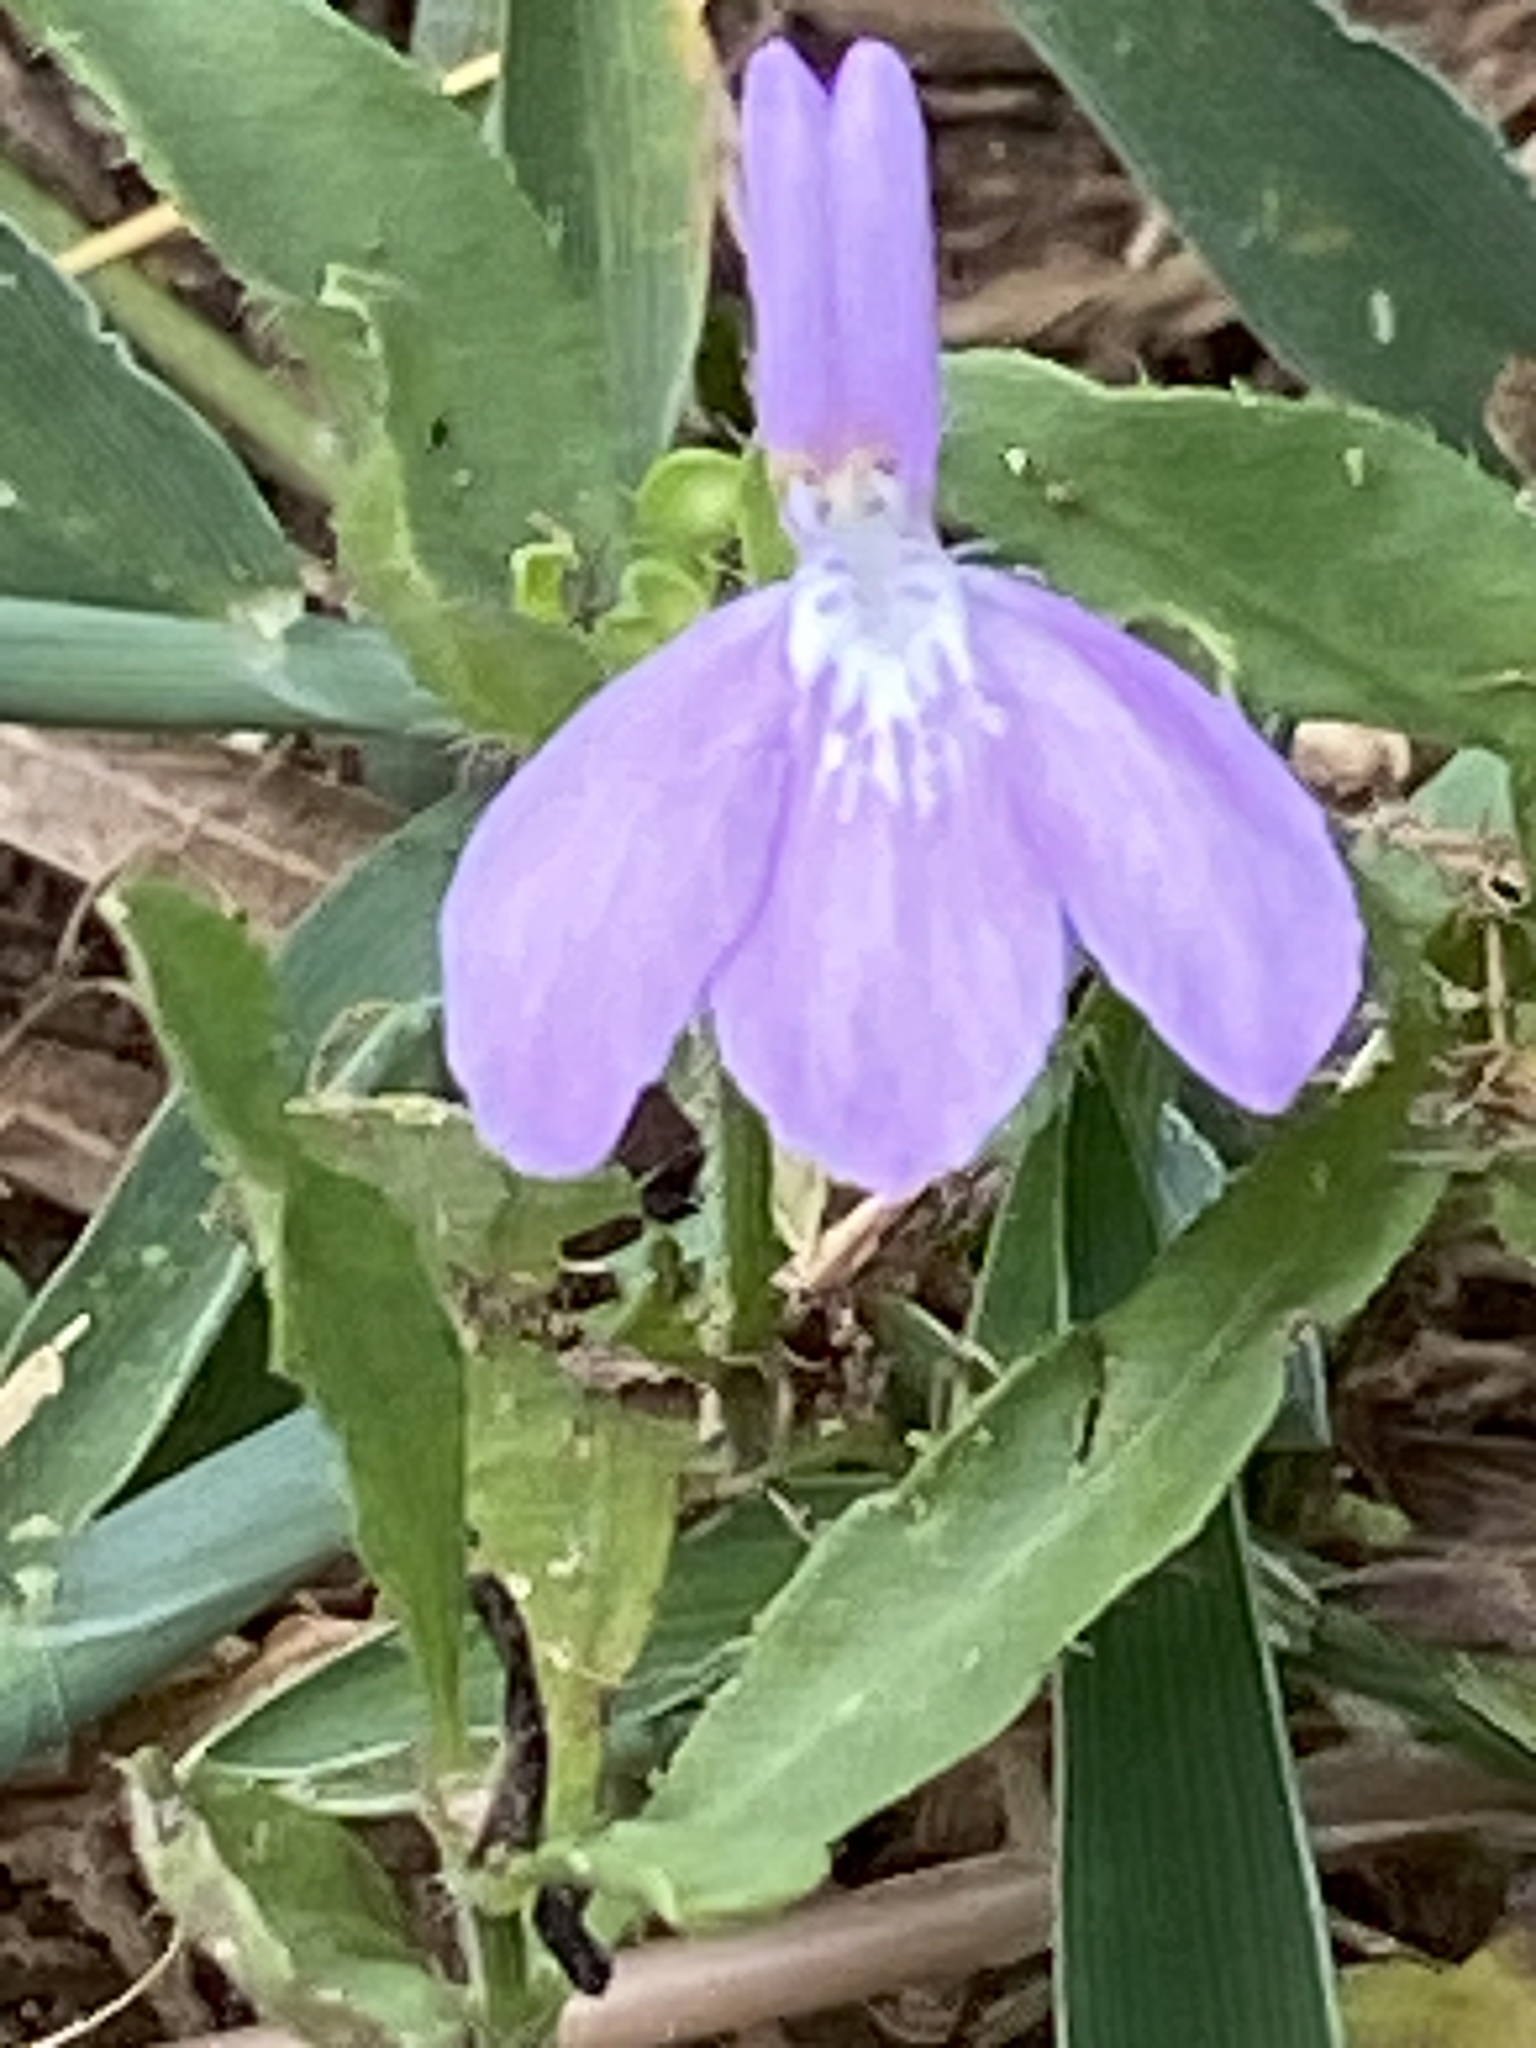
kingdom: Plantae
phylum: Tracheophyta
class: Magnoliopsida
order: Lamiales
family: Acanthaceae
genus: Justicia
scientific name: Justicia pilosella
